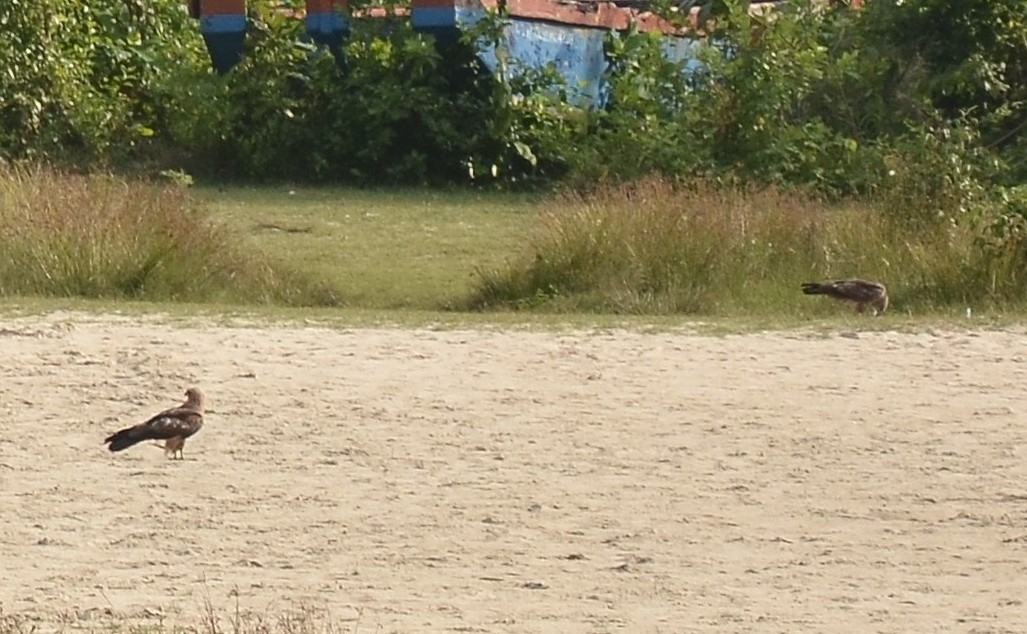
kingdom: Animalia
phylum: Chordata
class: Aves
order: Accipitriformes
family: Accipitridae
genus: Milvus
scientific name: Milvus migrans
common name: Black kite
